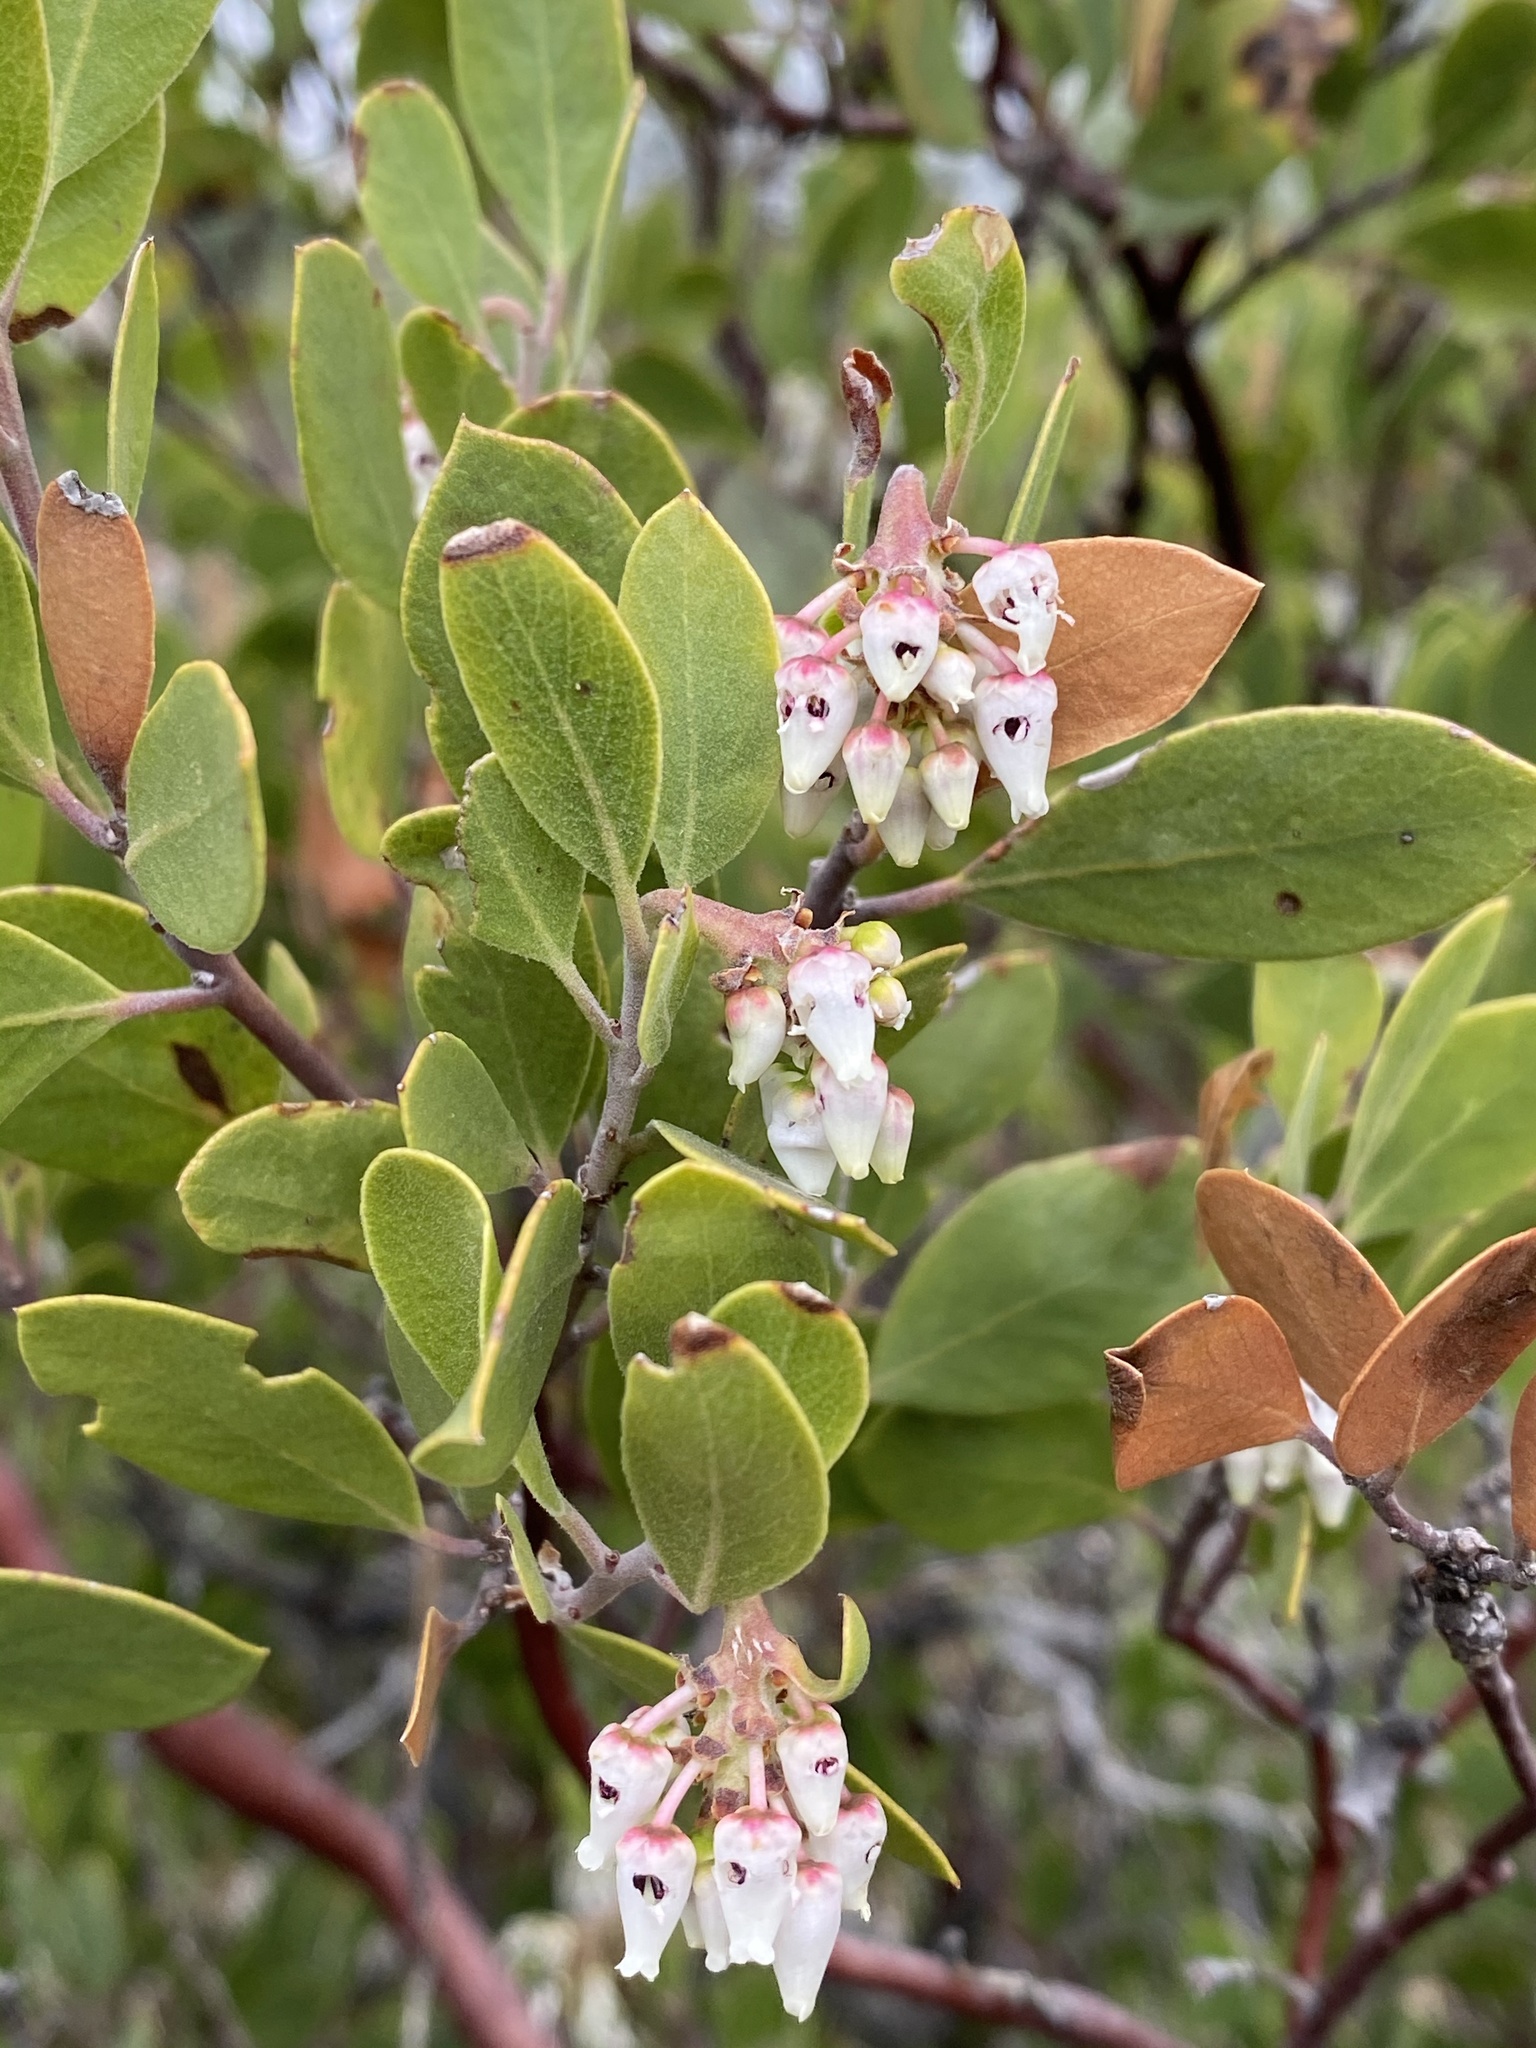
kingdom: Plantae
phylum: Tracheophyta
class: Magnoliopsida
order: Ericales
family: Ericaceae
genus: Arctostaphylos
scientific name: Arctostaphylos pungens
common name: Mexican manzanita
